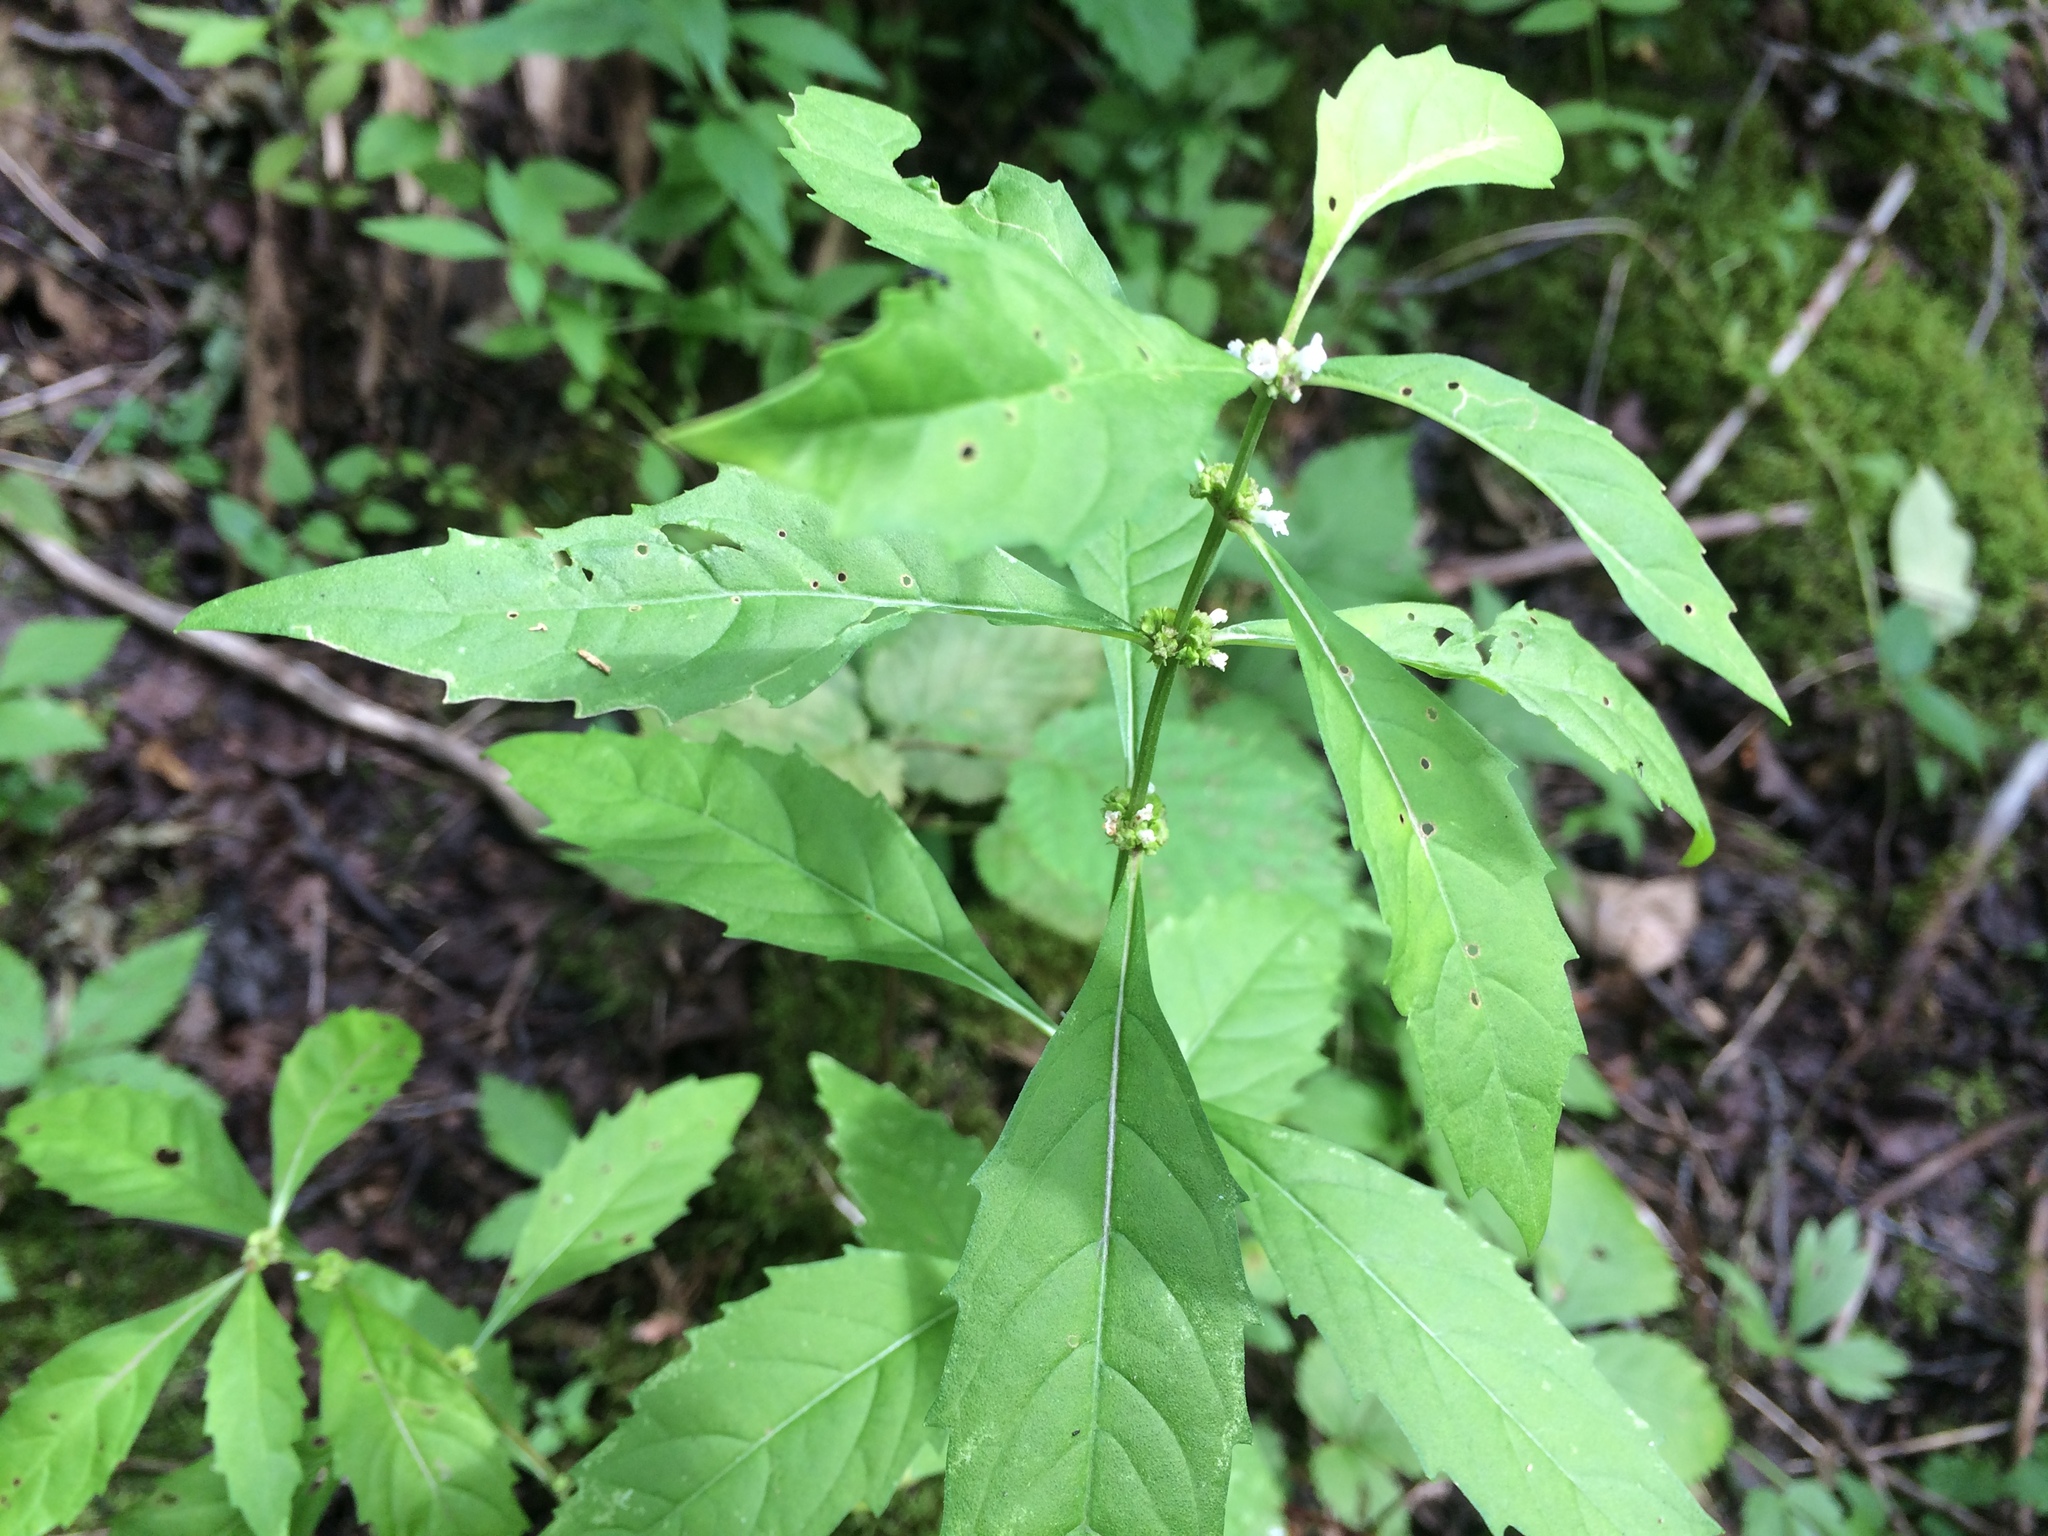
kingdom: Plantae
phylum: Tracheophyta
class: Magnoliopsida
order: Lamiales
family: Lamiaceae
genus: Lycopus
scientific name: Lycopus uniflorus
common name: Northern bugleweed
